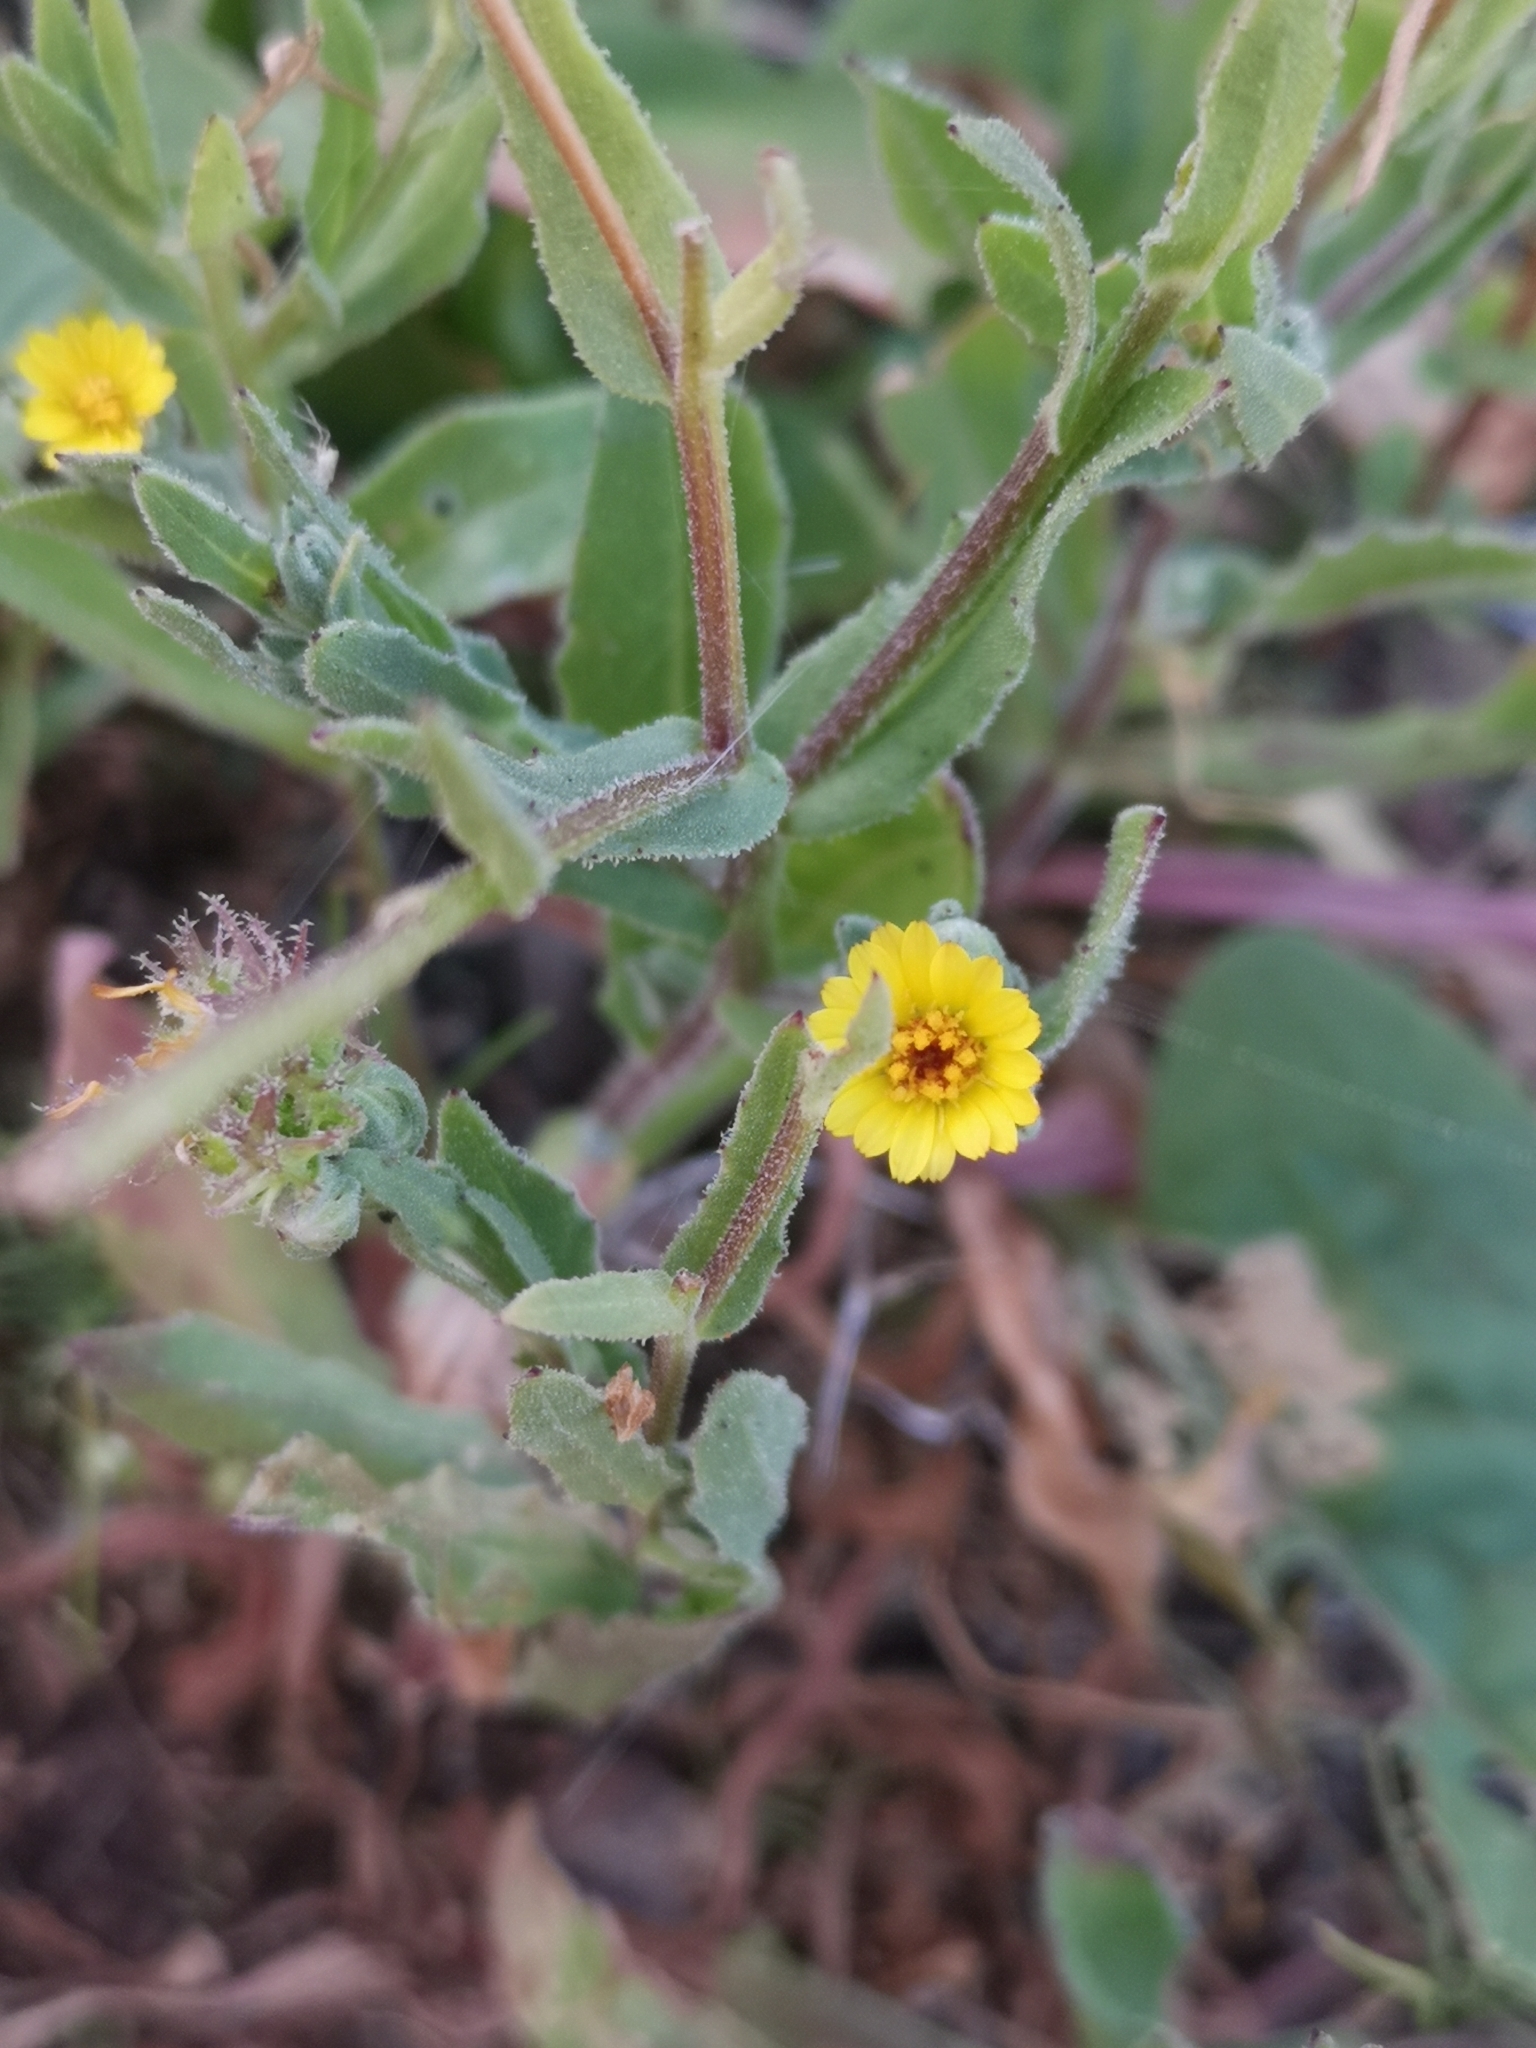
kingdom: Plantae
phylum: Tracheophyta
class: Magnoliopsida
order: Asterales
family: Asteraceae
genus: Calendula
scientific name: Calendula arvensis
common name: Field marigold
